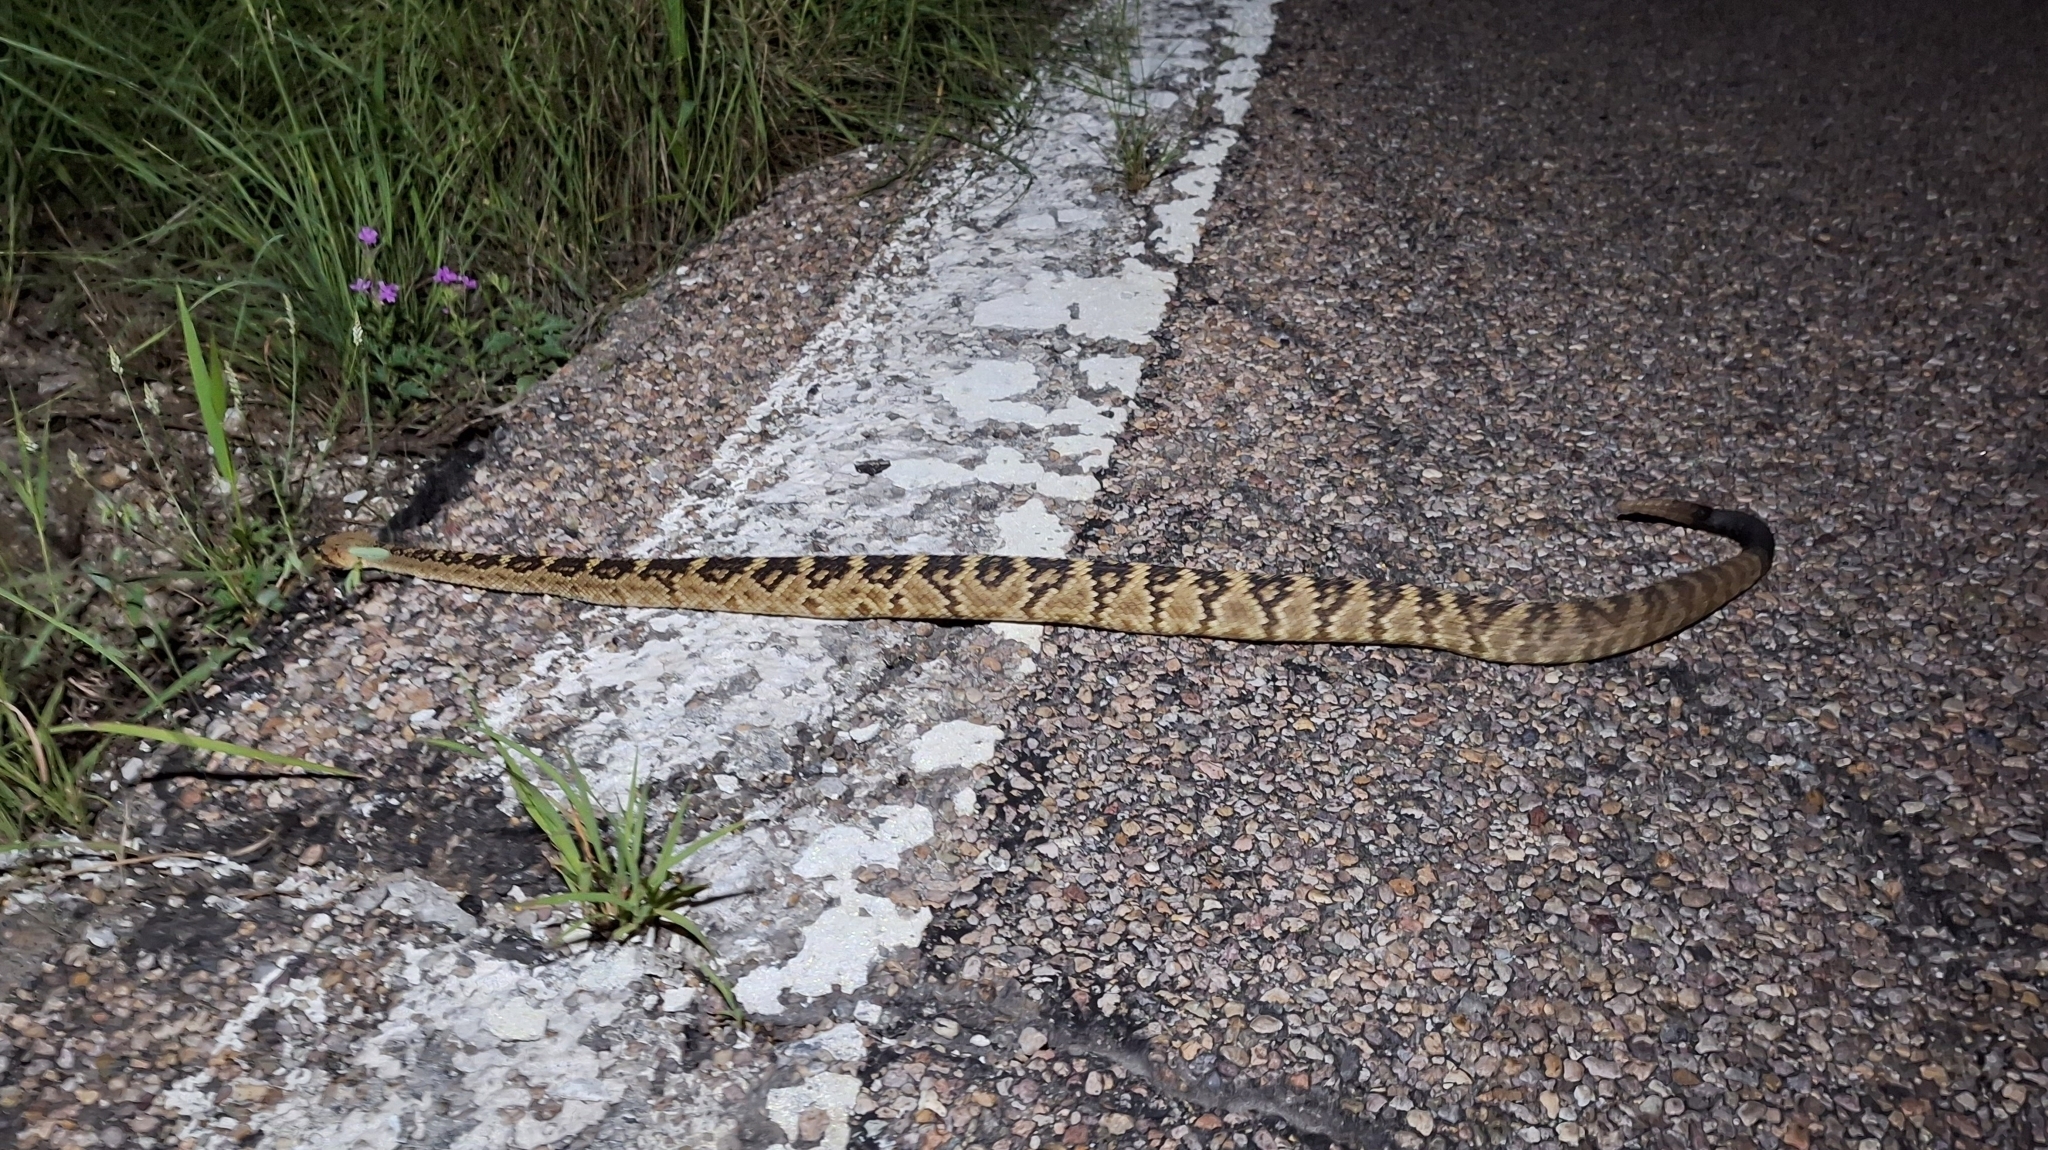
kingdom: Animalia
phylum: Chordata
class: Squamata
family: Viperidae
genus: Crotalus
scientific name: Crotalus molossus
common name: Black tailed rattlesnake
